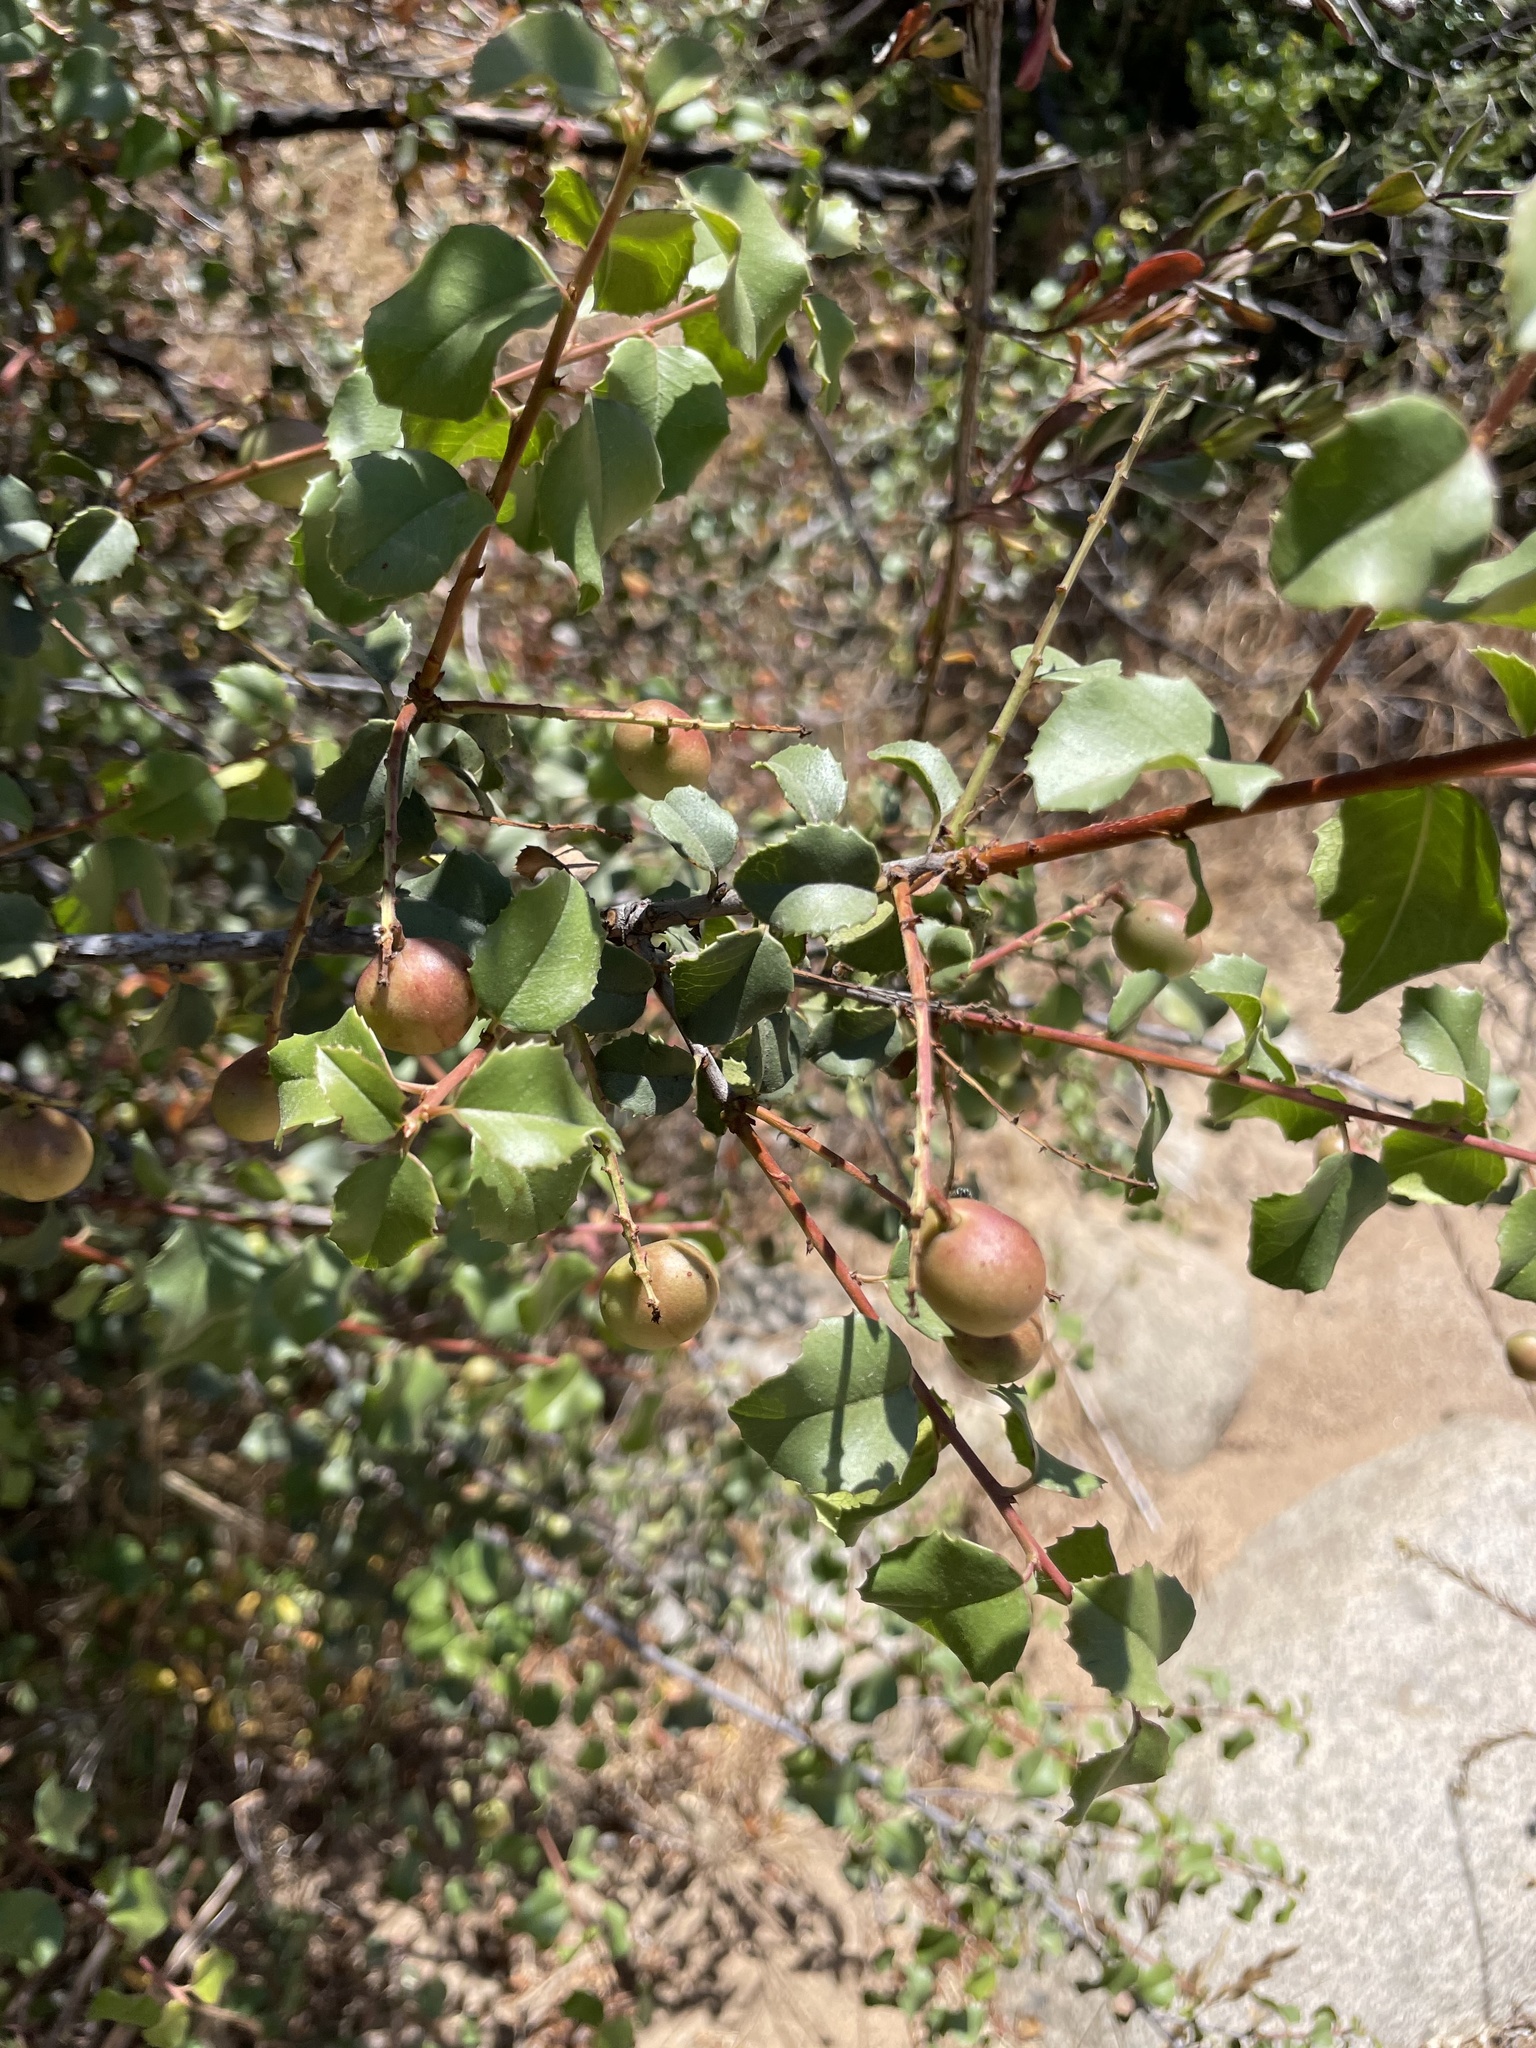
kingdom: Plantae
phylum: Tracheophyta
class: Magnoliopsida
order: Rosales
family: Rosaceae
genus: Prunus
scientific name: Prunus ilicifolia
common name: Hollyleaf cherry
